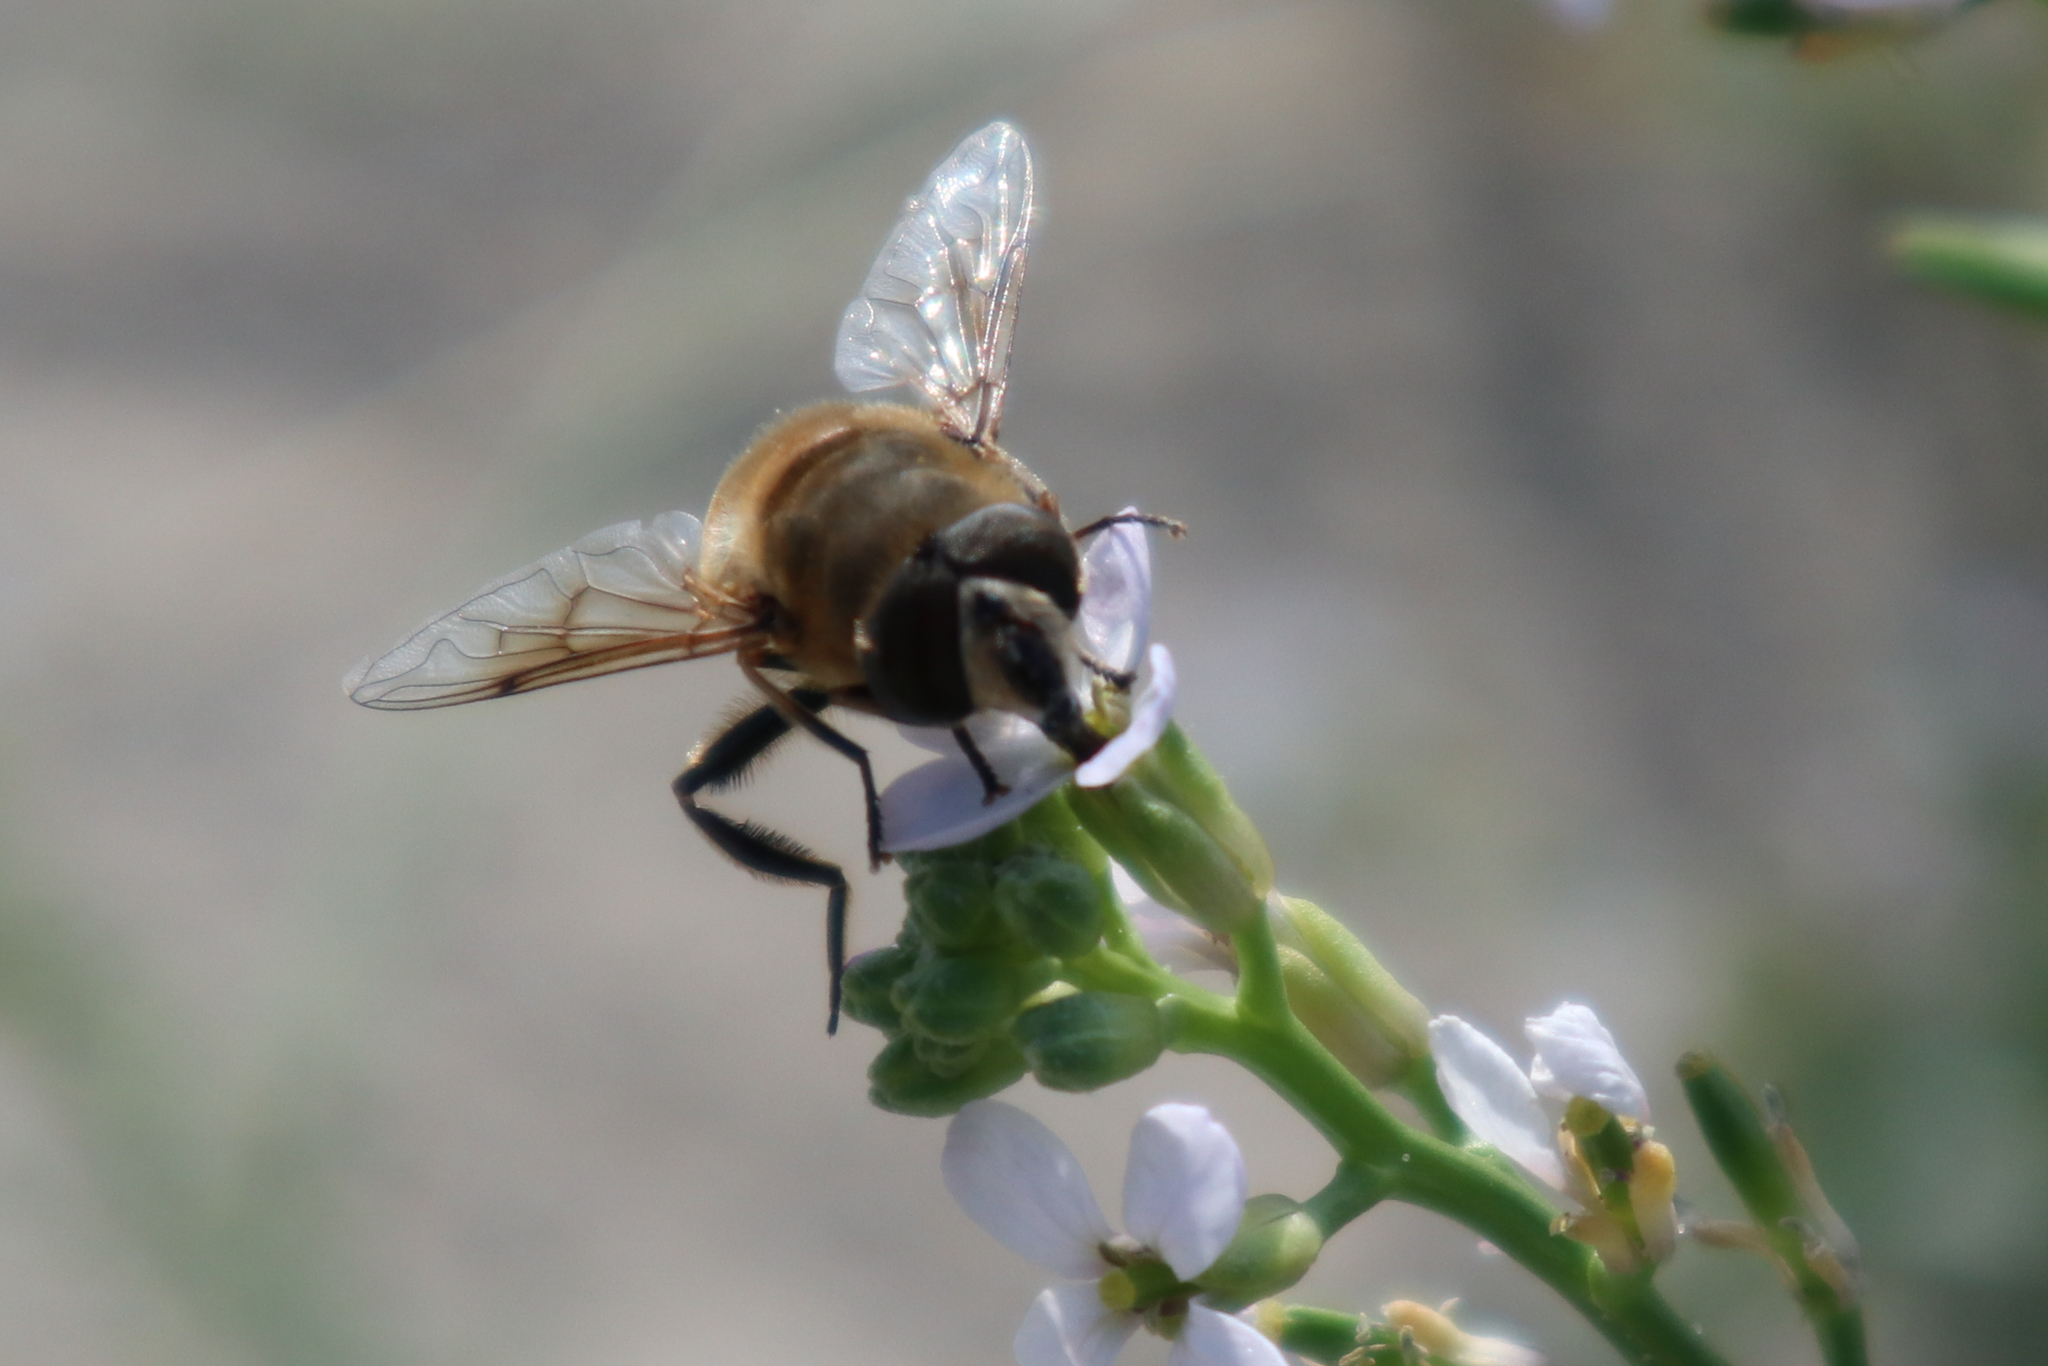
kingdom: Animalia
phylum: Arthropoda
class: Insecta
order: Diptera
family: Syrphidae
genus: Eristalis
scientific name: Eristalis tenax
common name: Drone fly
